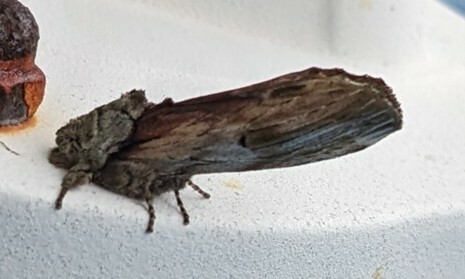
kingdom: Animalia
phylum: Arthropoda
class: Insecta
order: Lepidoptera
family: Notodontidae
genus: Schizura
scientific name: Schizura
